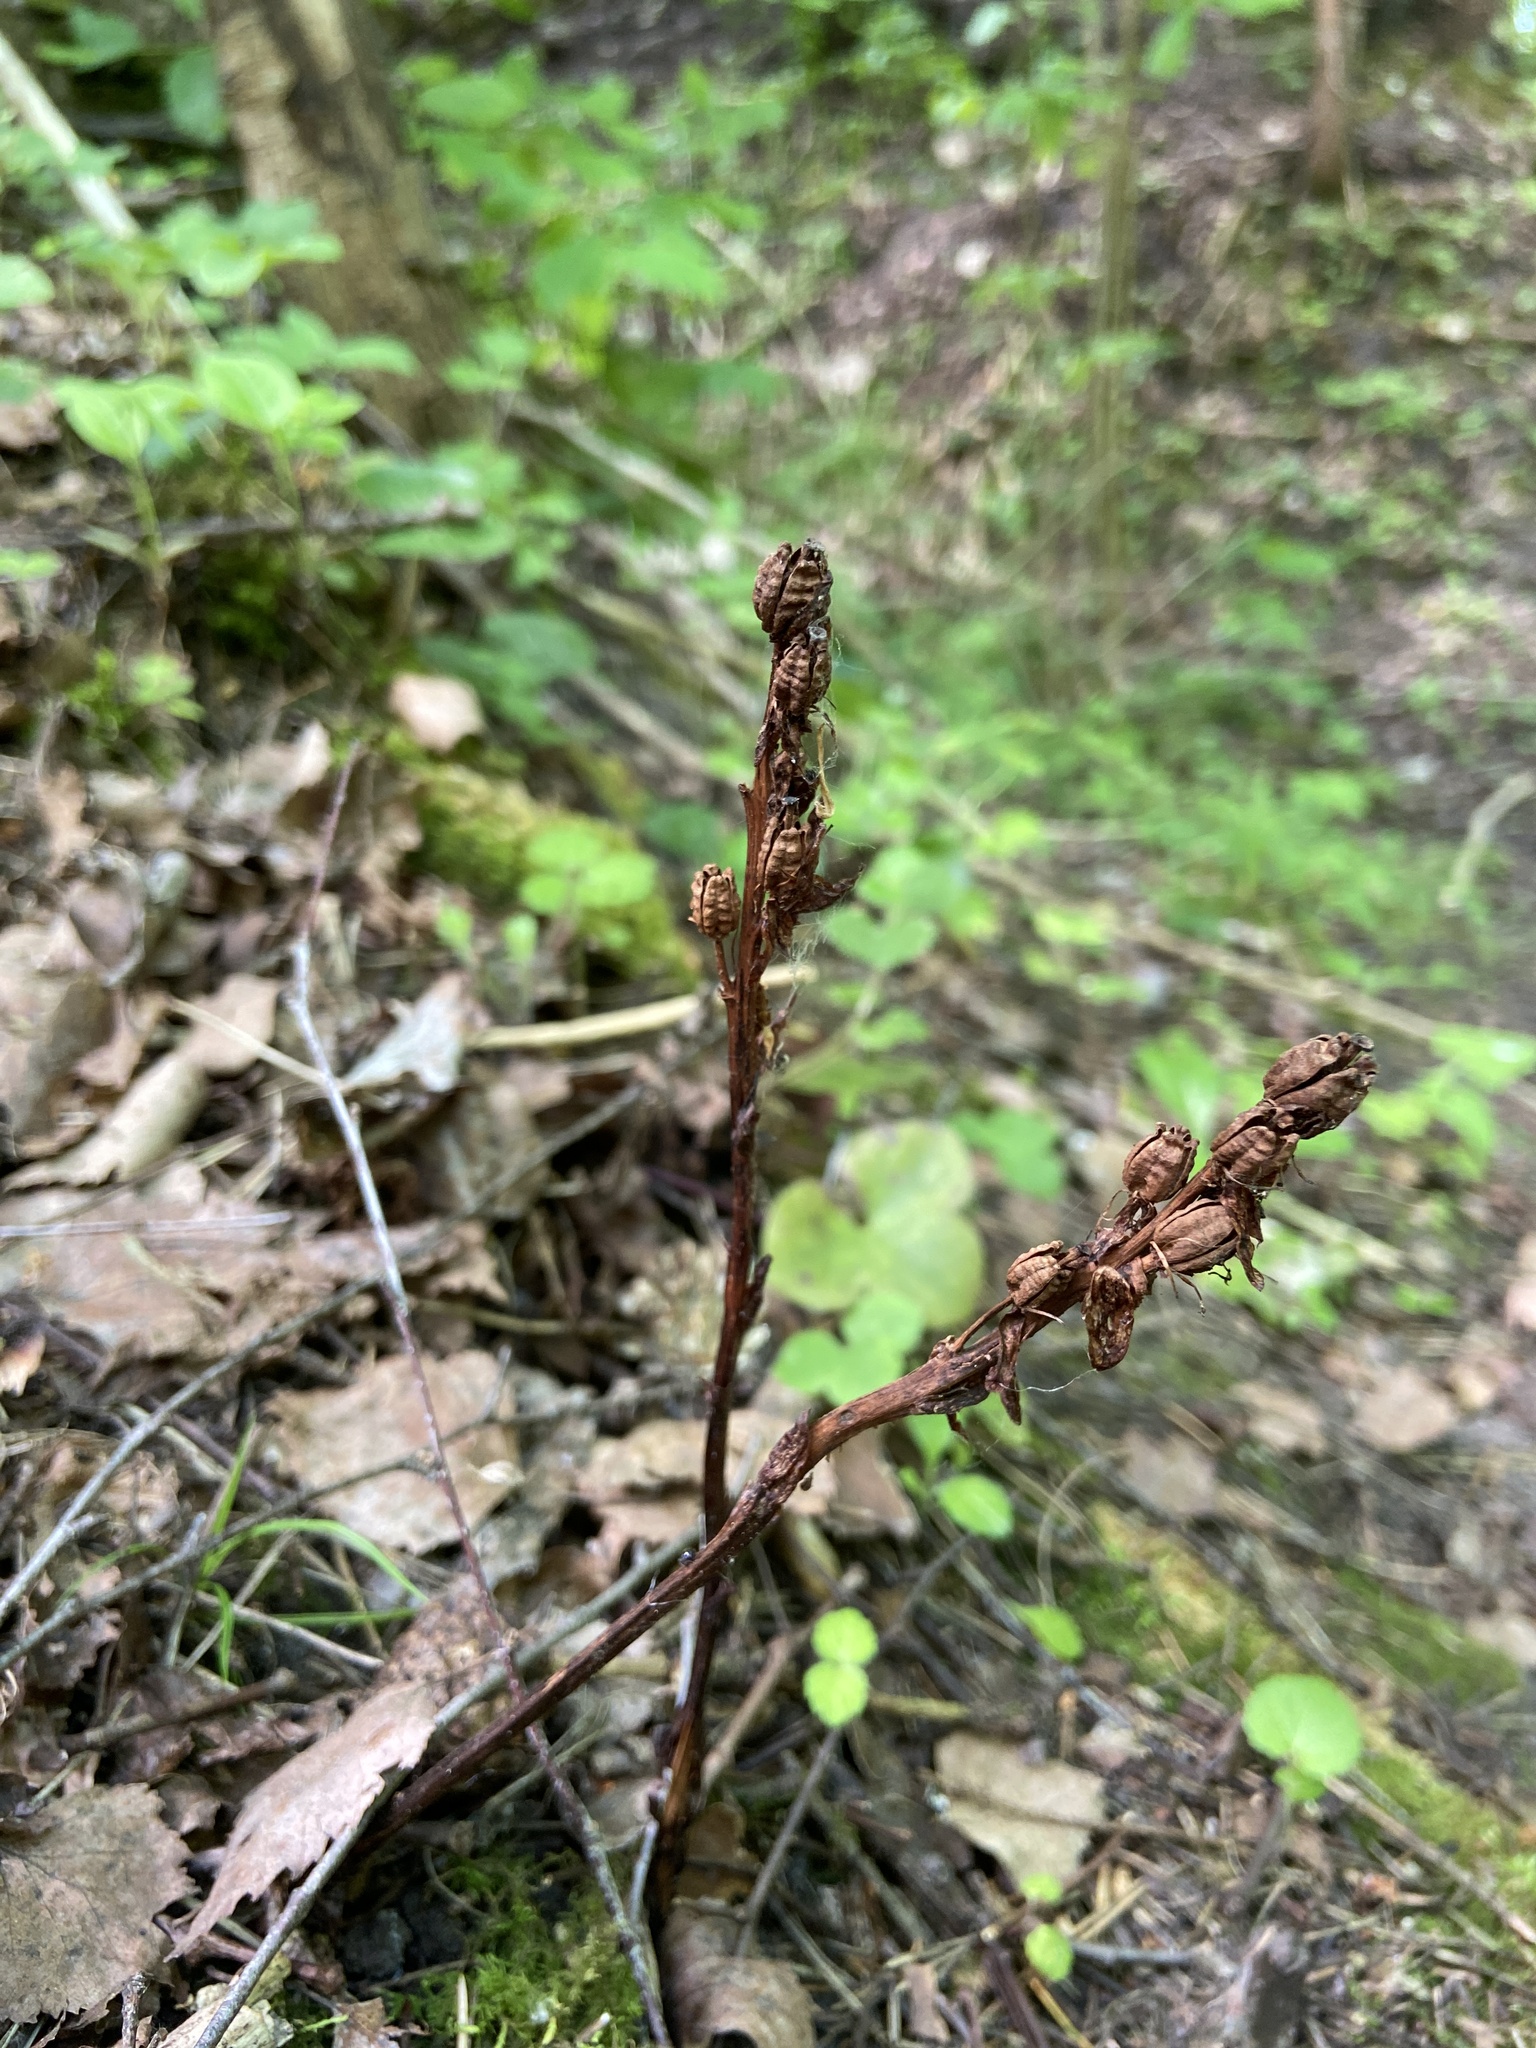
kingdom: Plantae
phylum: Tracheophyta
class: Magnoliopsida
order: Ericales
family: Ericaceae
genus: Hypopitys
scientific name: Hypopitys monotropa
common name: Yellow bird's-nest
